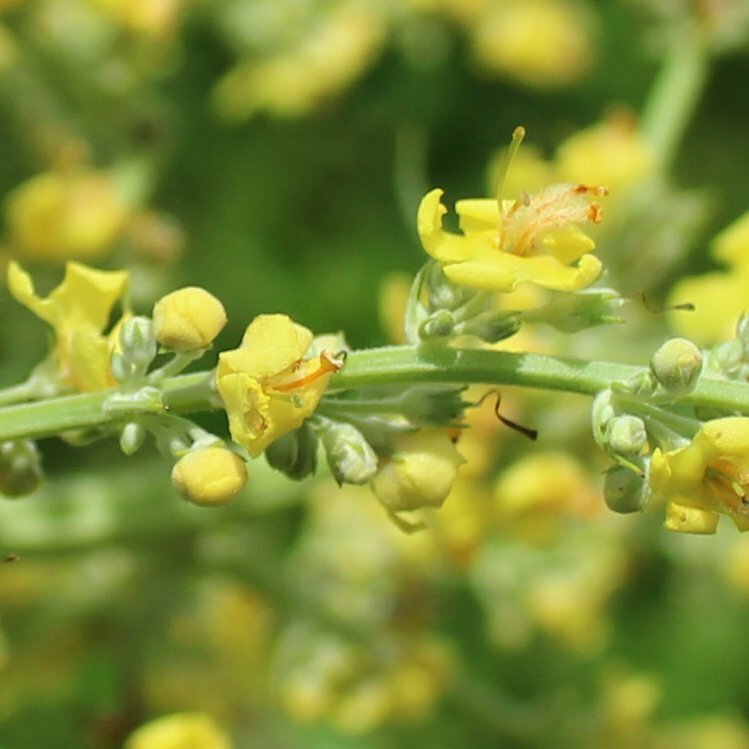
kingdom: Plantae
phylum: Tracheophyta
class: Magnoliopsida
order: Lamiales
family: Scrophulariaceae
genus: Verbascum
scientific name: Verbascum lychnitis
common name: White mullein
